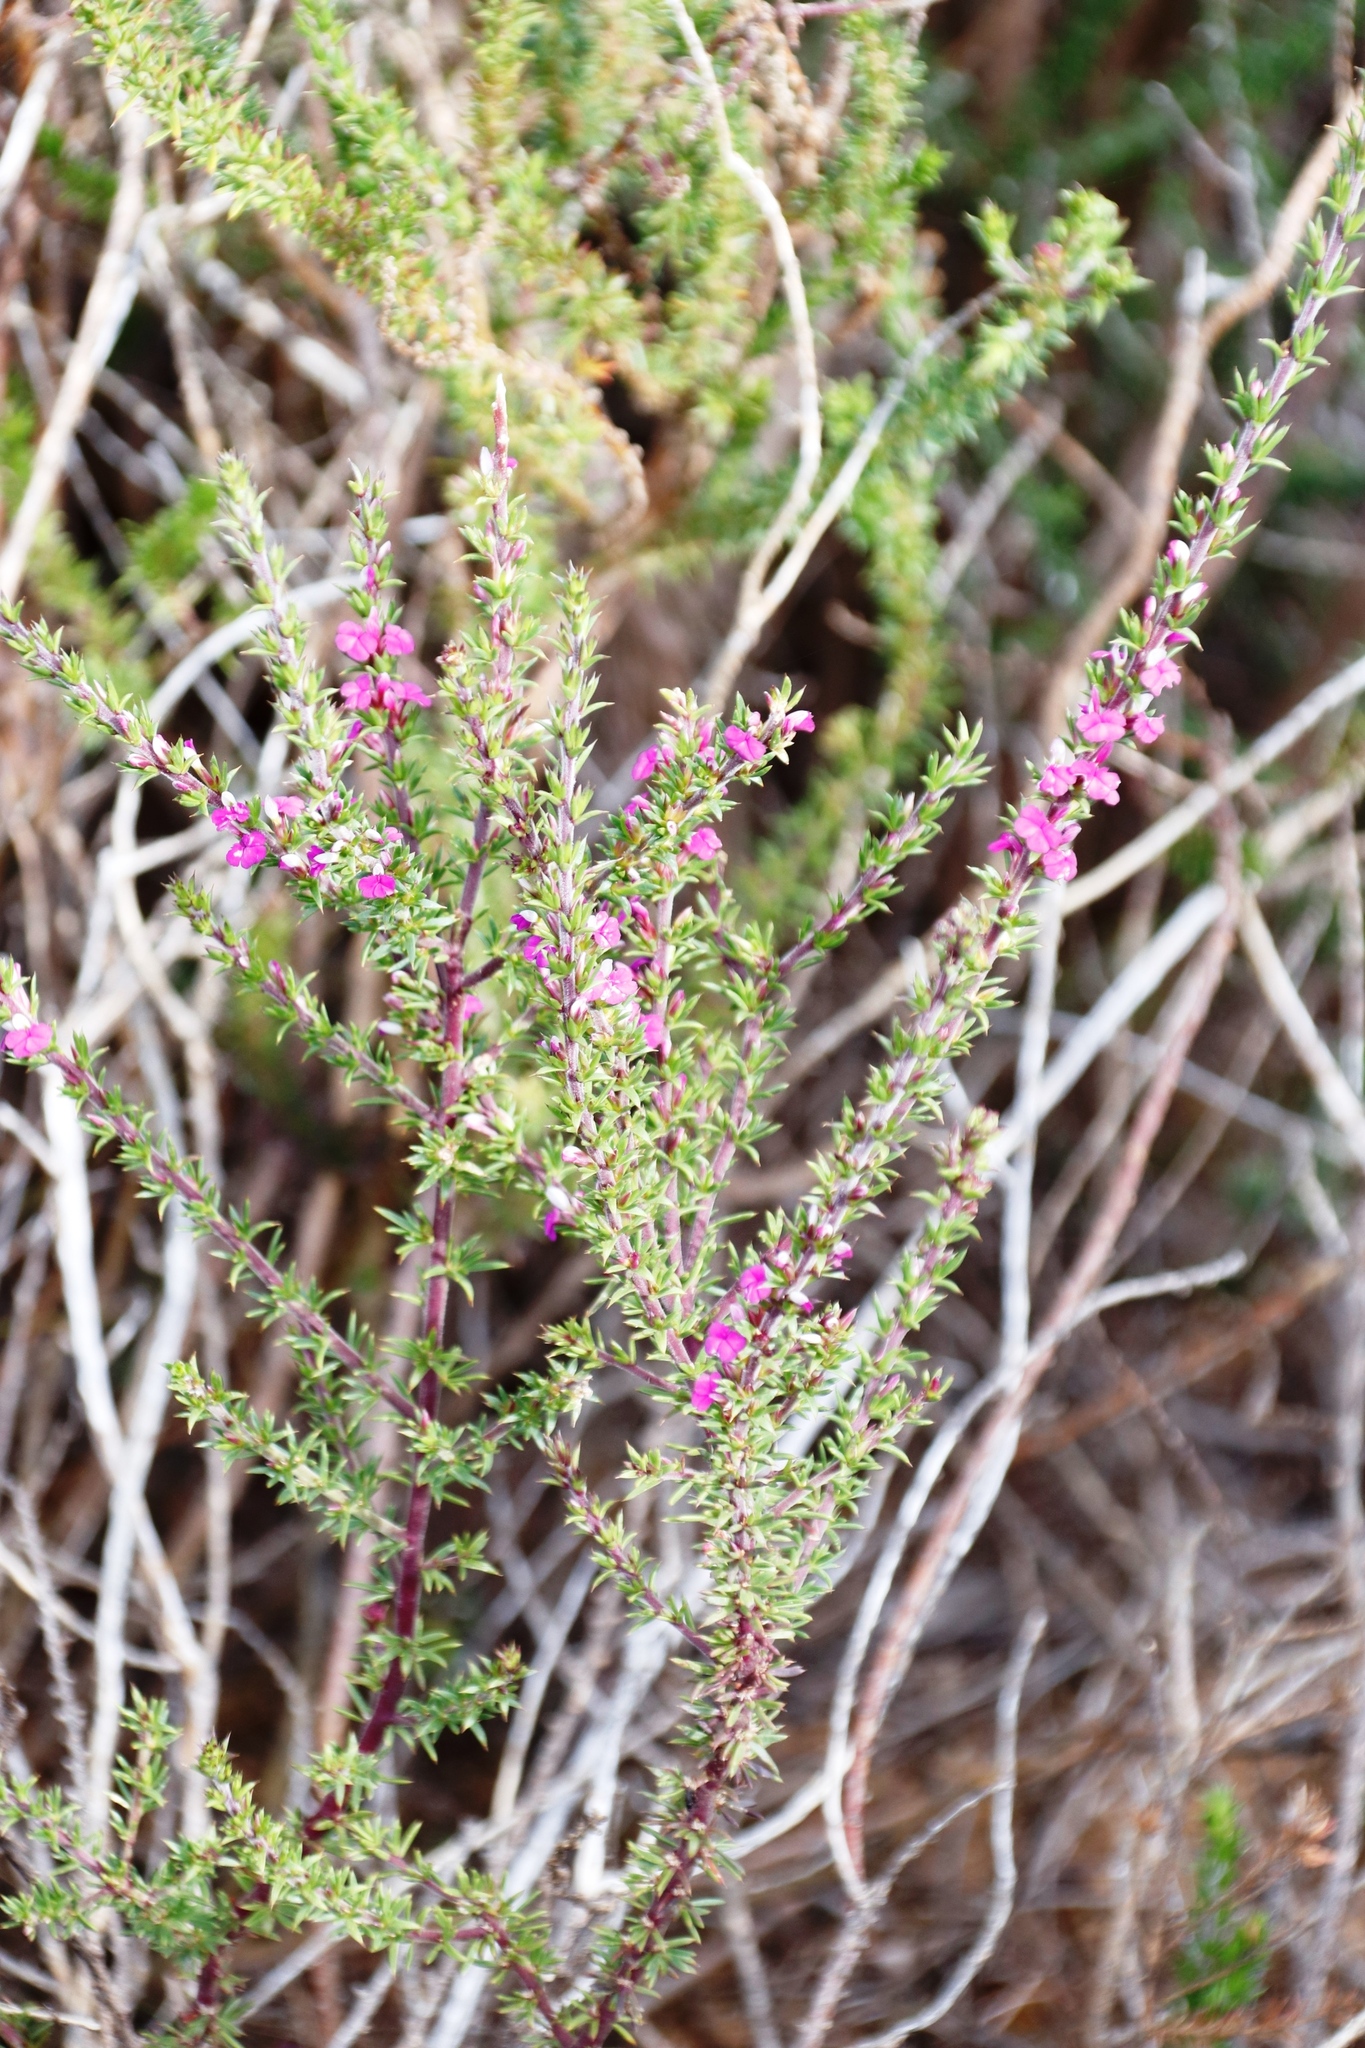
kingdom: Plantae
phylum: Tracheophyta
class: Magnoliopsida
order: Fabales
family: Polygalaceae
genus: Muraltia
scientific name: Muraltia heisteria
